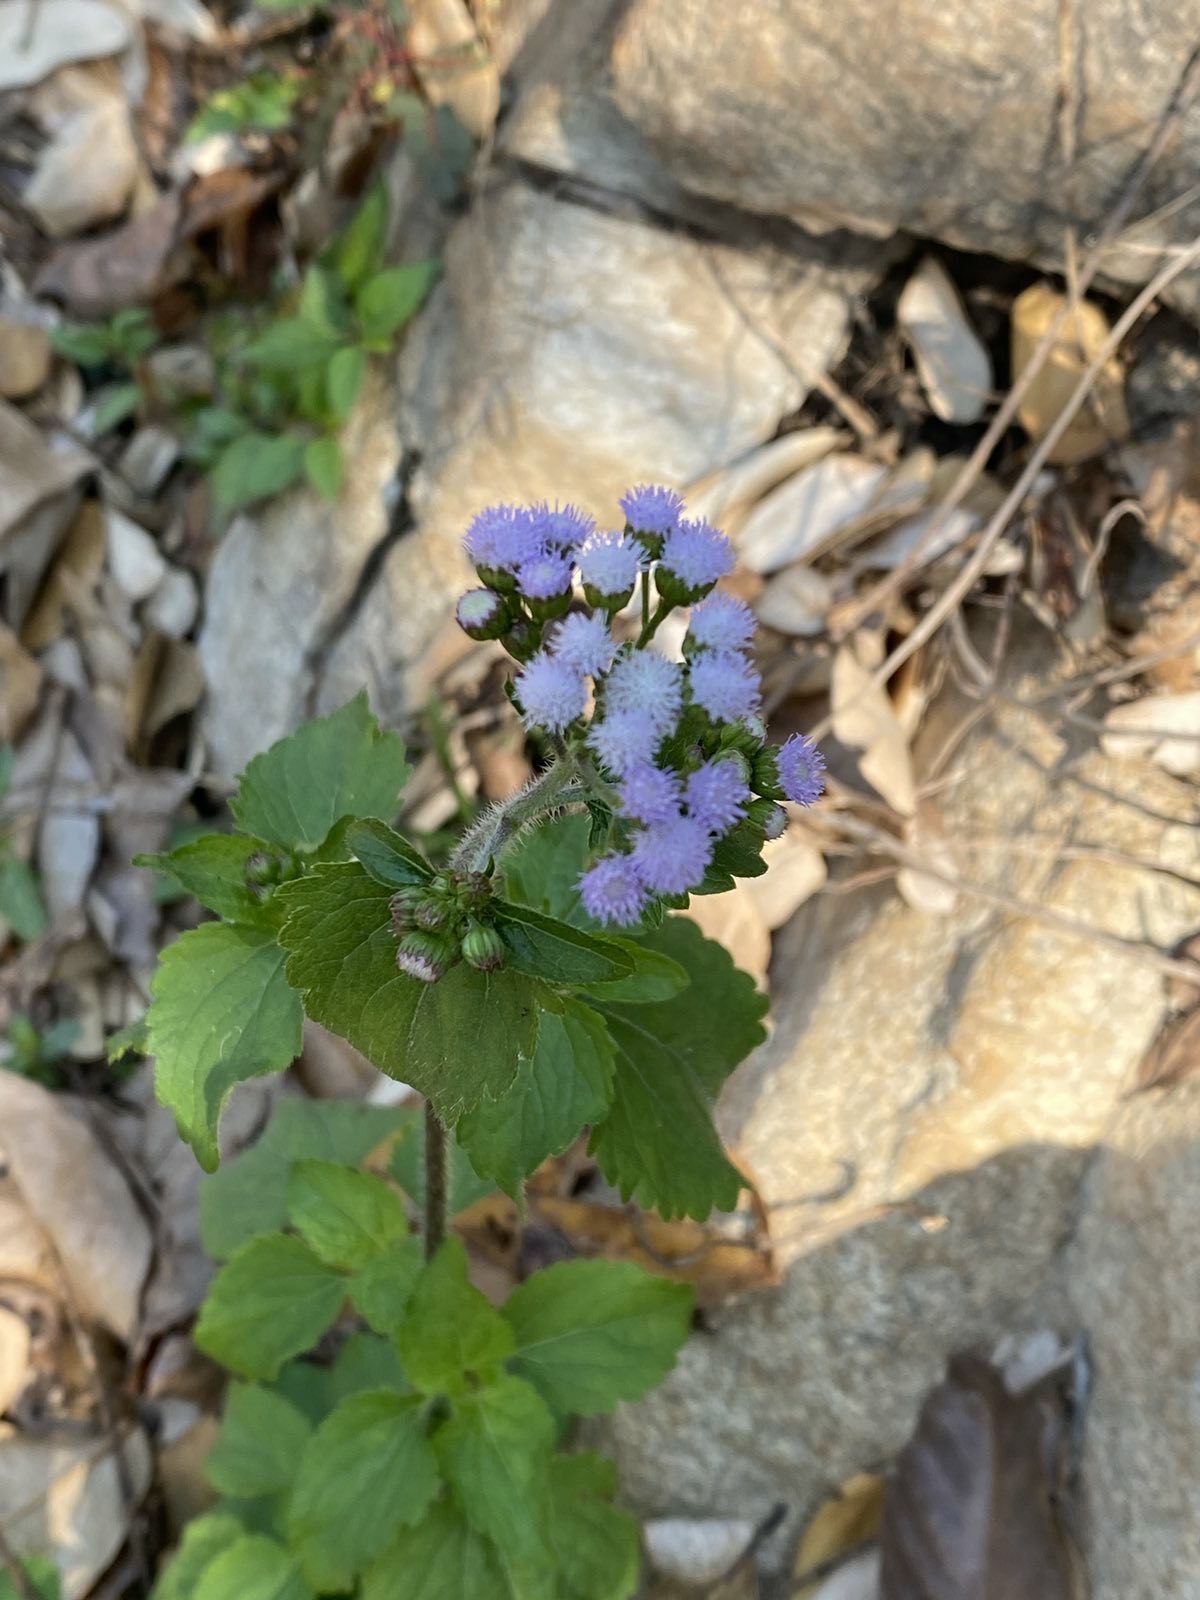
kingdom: Plantae
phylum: Tracheophyta
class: Magnoliopsida
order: Asterales
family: Asteraceae
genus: Ageratum
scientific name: Ageratum conyzoides
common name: Tropical whiteweed
